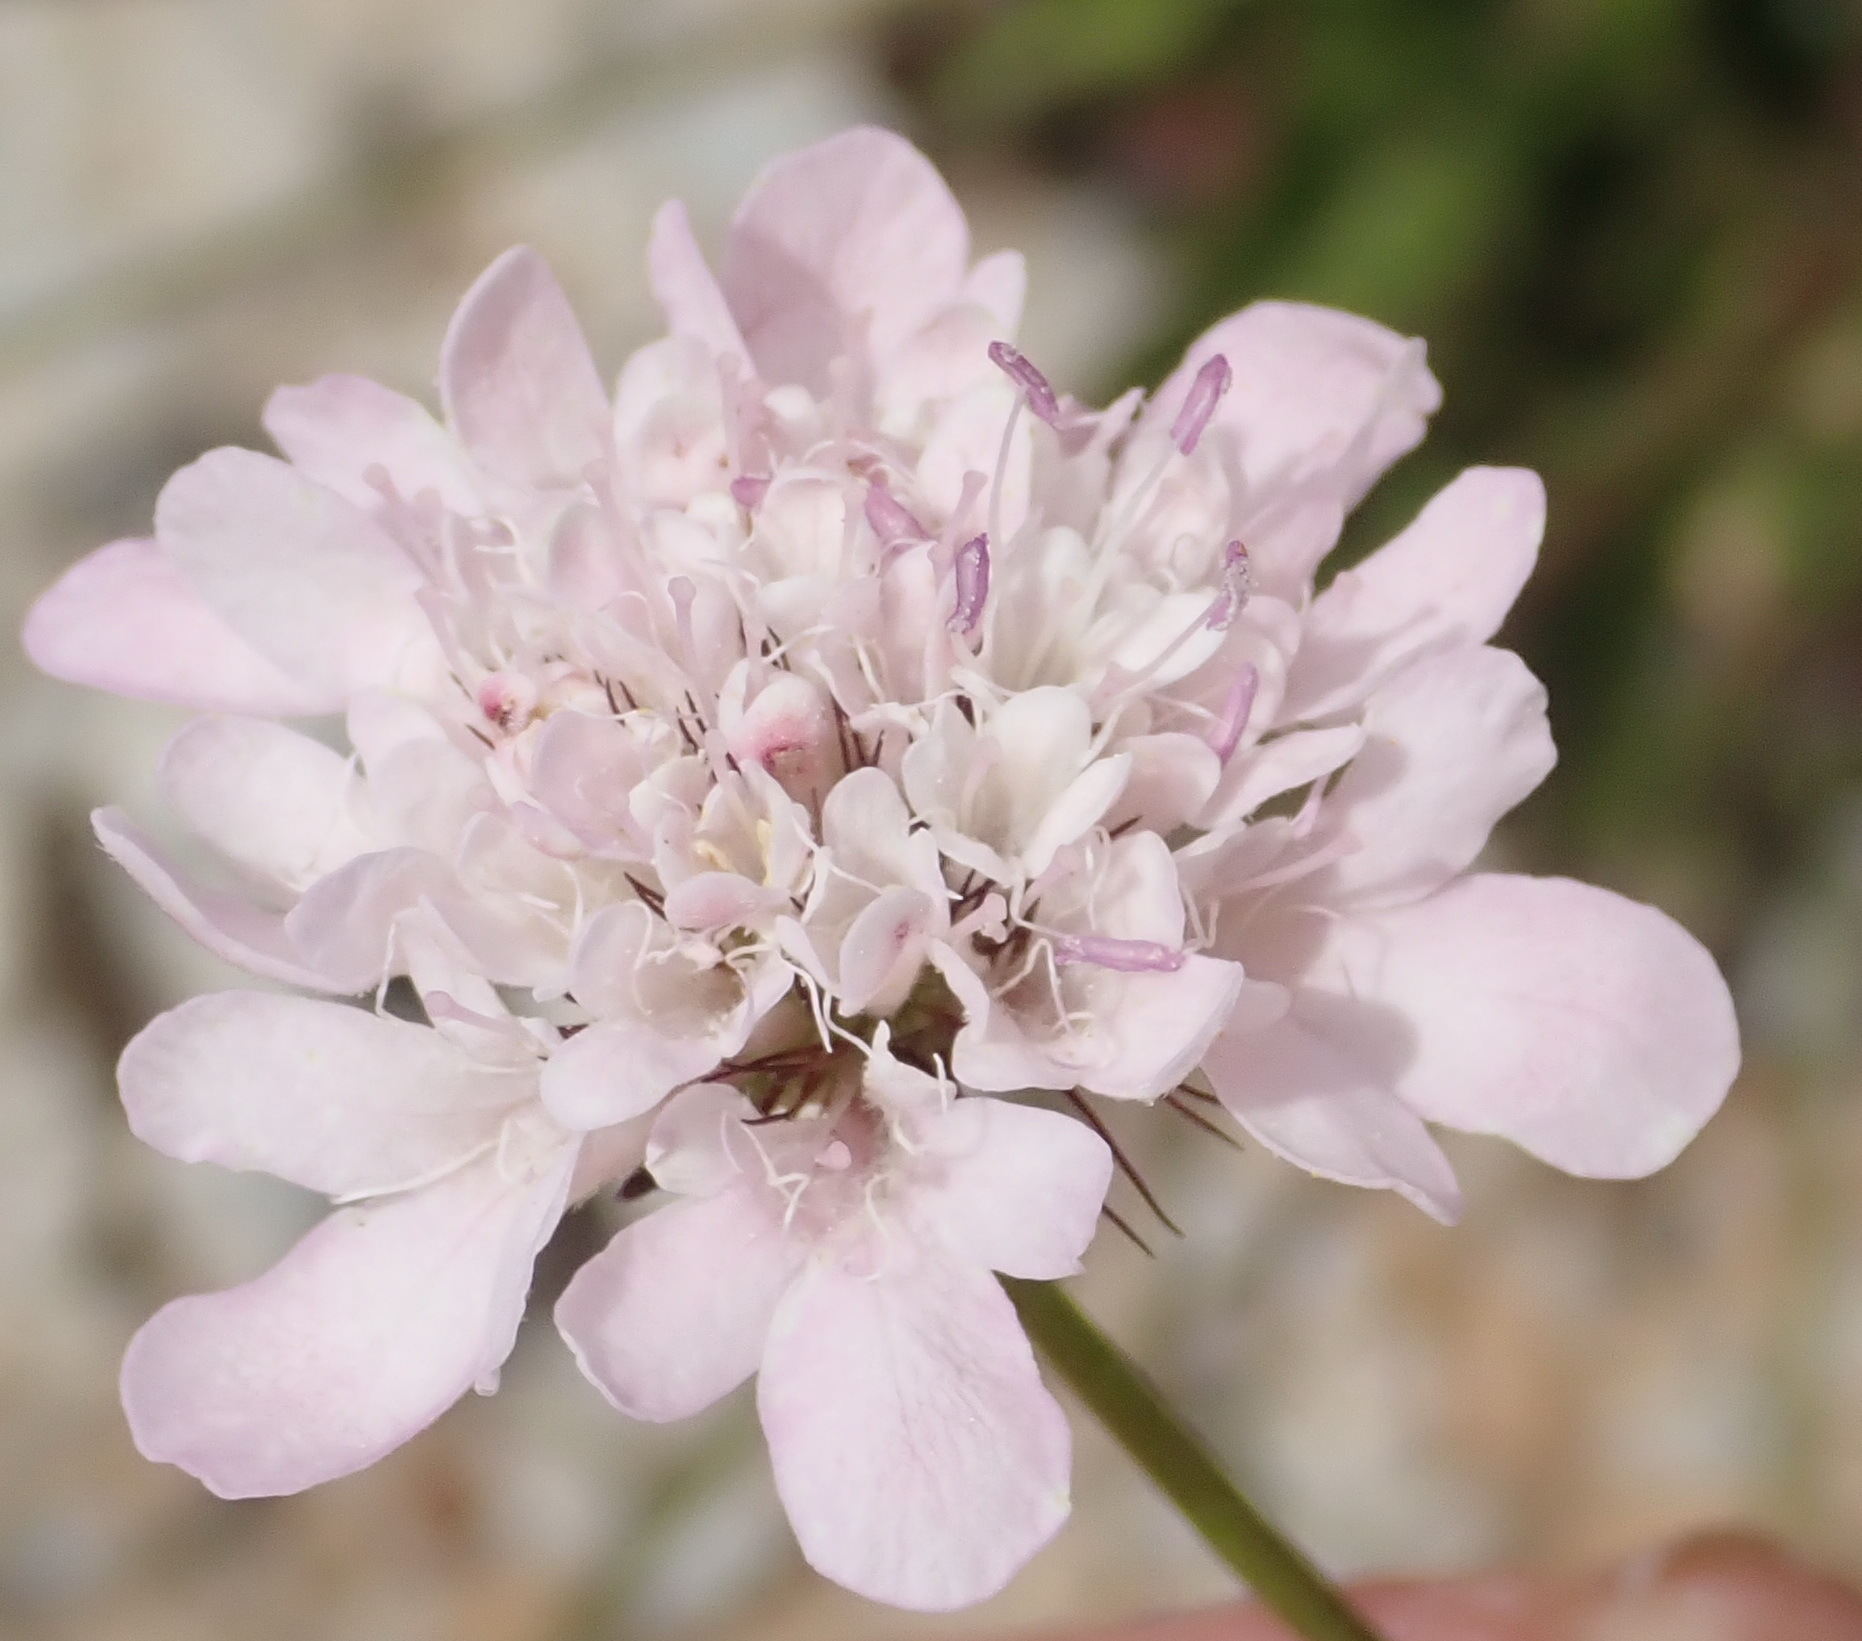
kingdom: Plantae
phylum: Tracheophyta
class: Magnoliopsida
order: Dipsacales
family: Caprifoliaceae
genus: Scabiosa
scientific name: Scabiosa columbaria
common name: Small scabious
